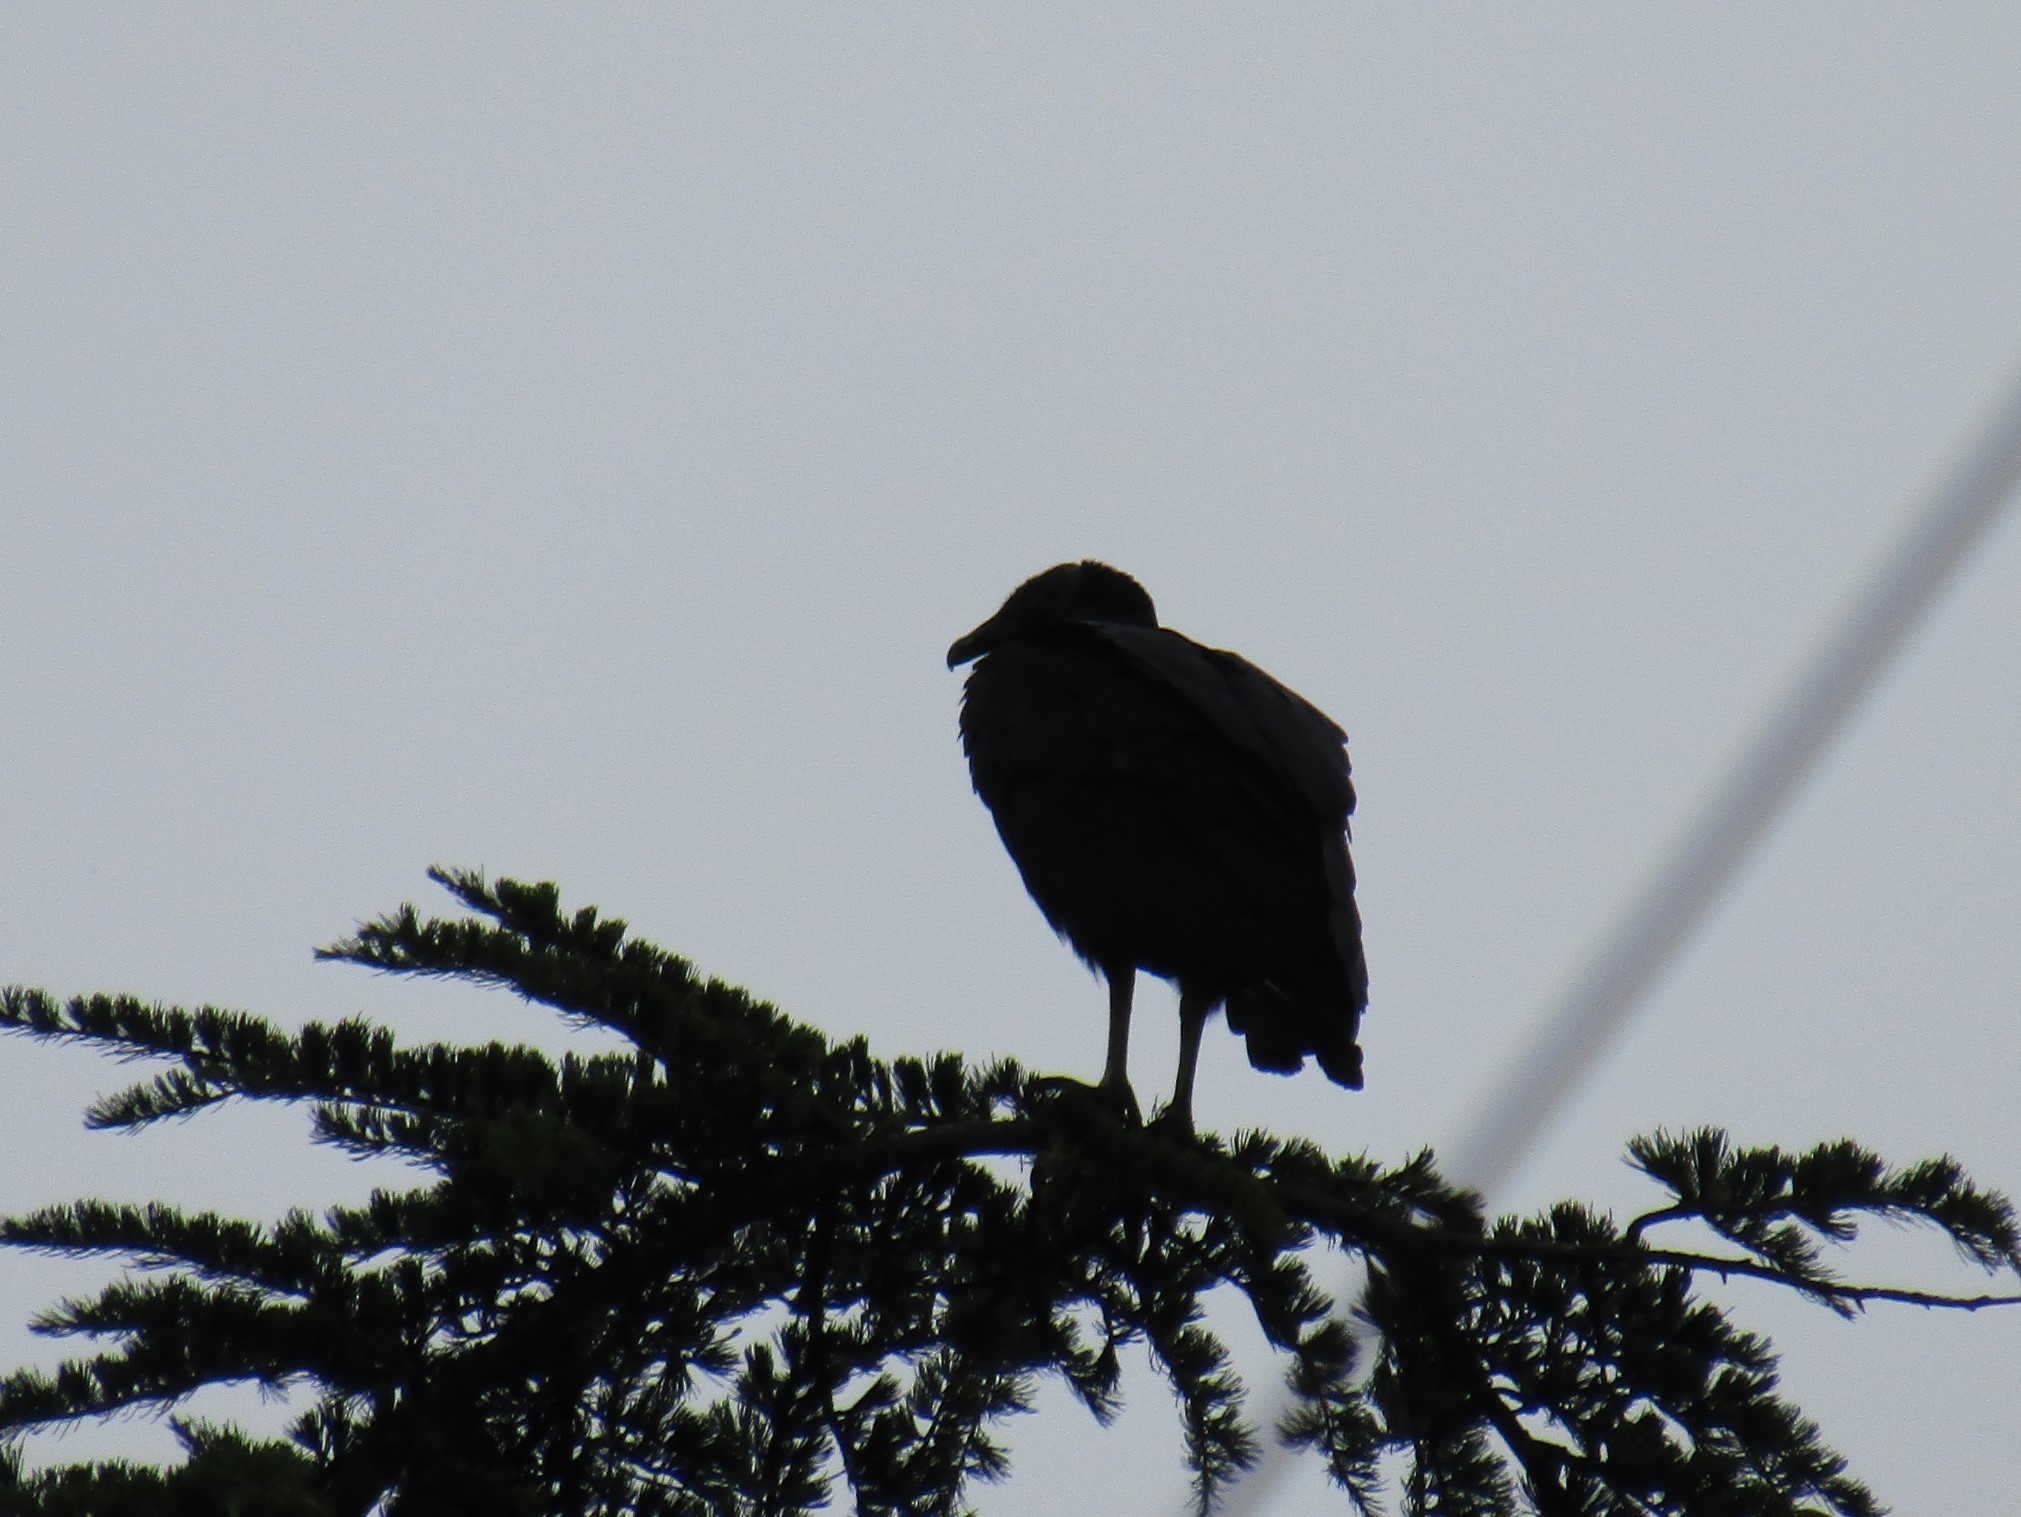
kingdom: Animalia
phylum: Chordata
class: Aves
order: Accipitriformes
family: Cathartidae
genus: Coragyps
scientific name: Coragyps atratus
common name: Black vulture
